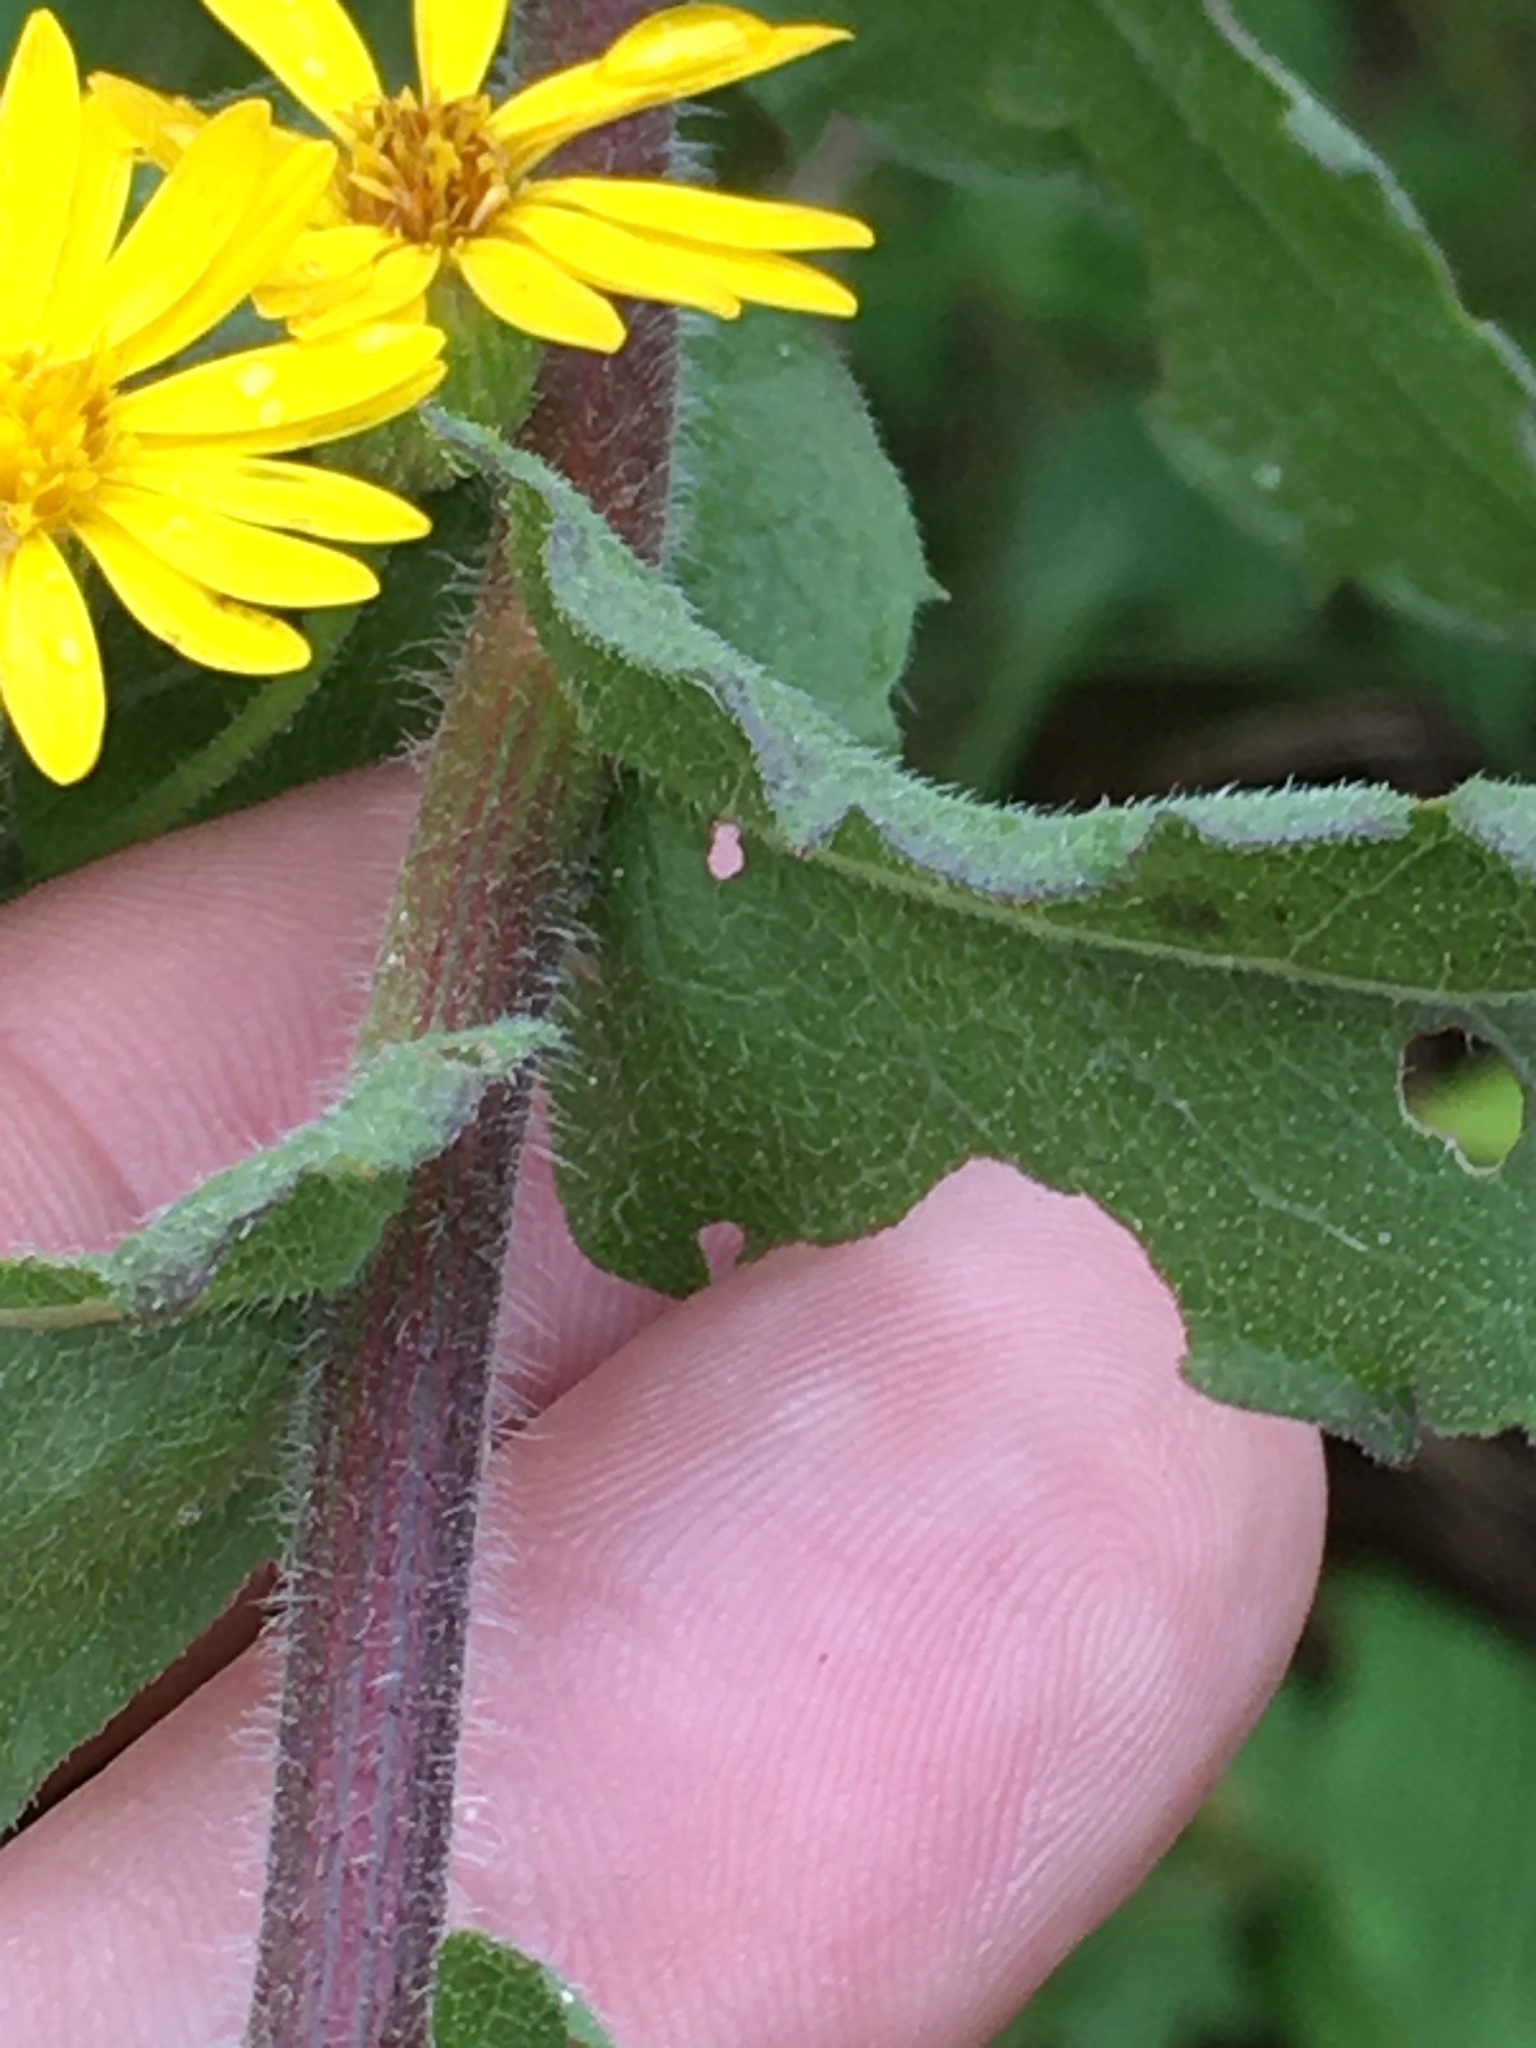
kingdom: Plantae
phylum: Tracheophyta
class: Magnoliopsida
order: Asterales
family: Asteraceae
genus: Heterotheca
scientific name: Heterotheca subaxillaris
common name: Camphorweed
